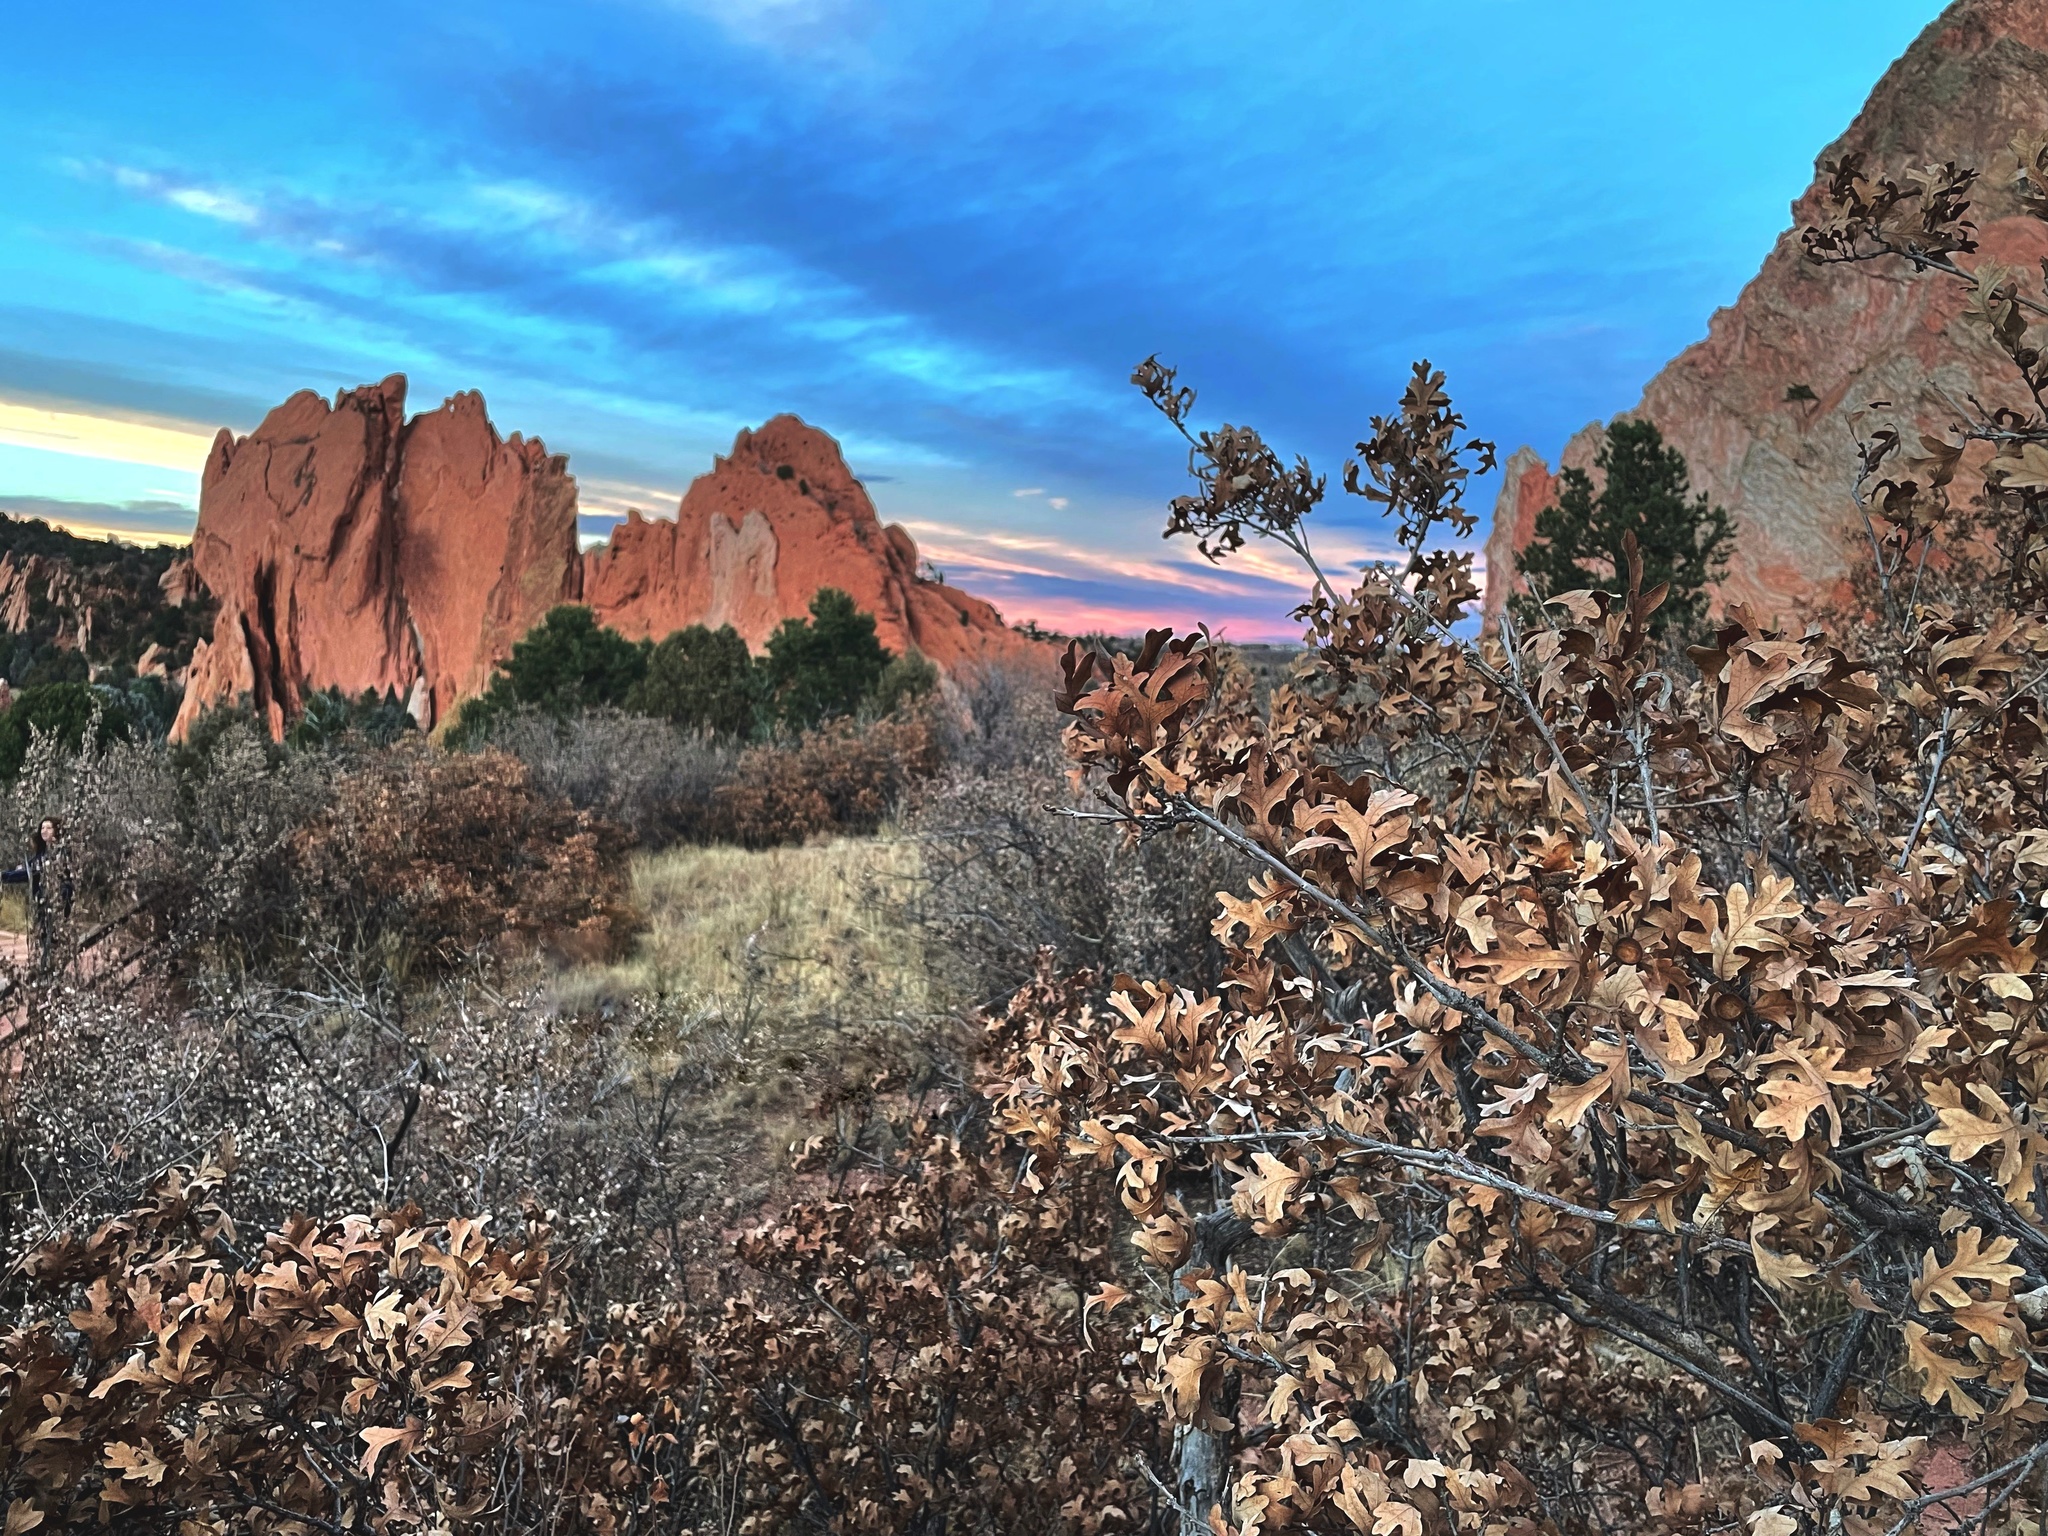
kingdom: Plantae
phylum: Tracheophyta
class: Magnoliopsida
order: Fagales
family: Fagaceae
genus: Quercus
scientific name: Quercus gambelii
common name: Gambel oak
